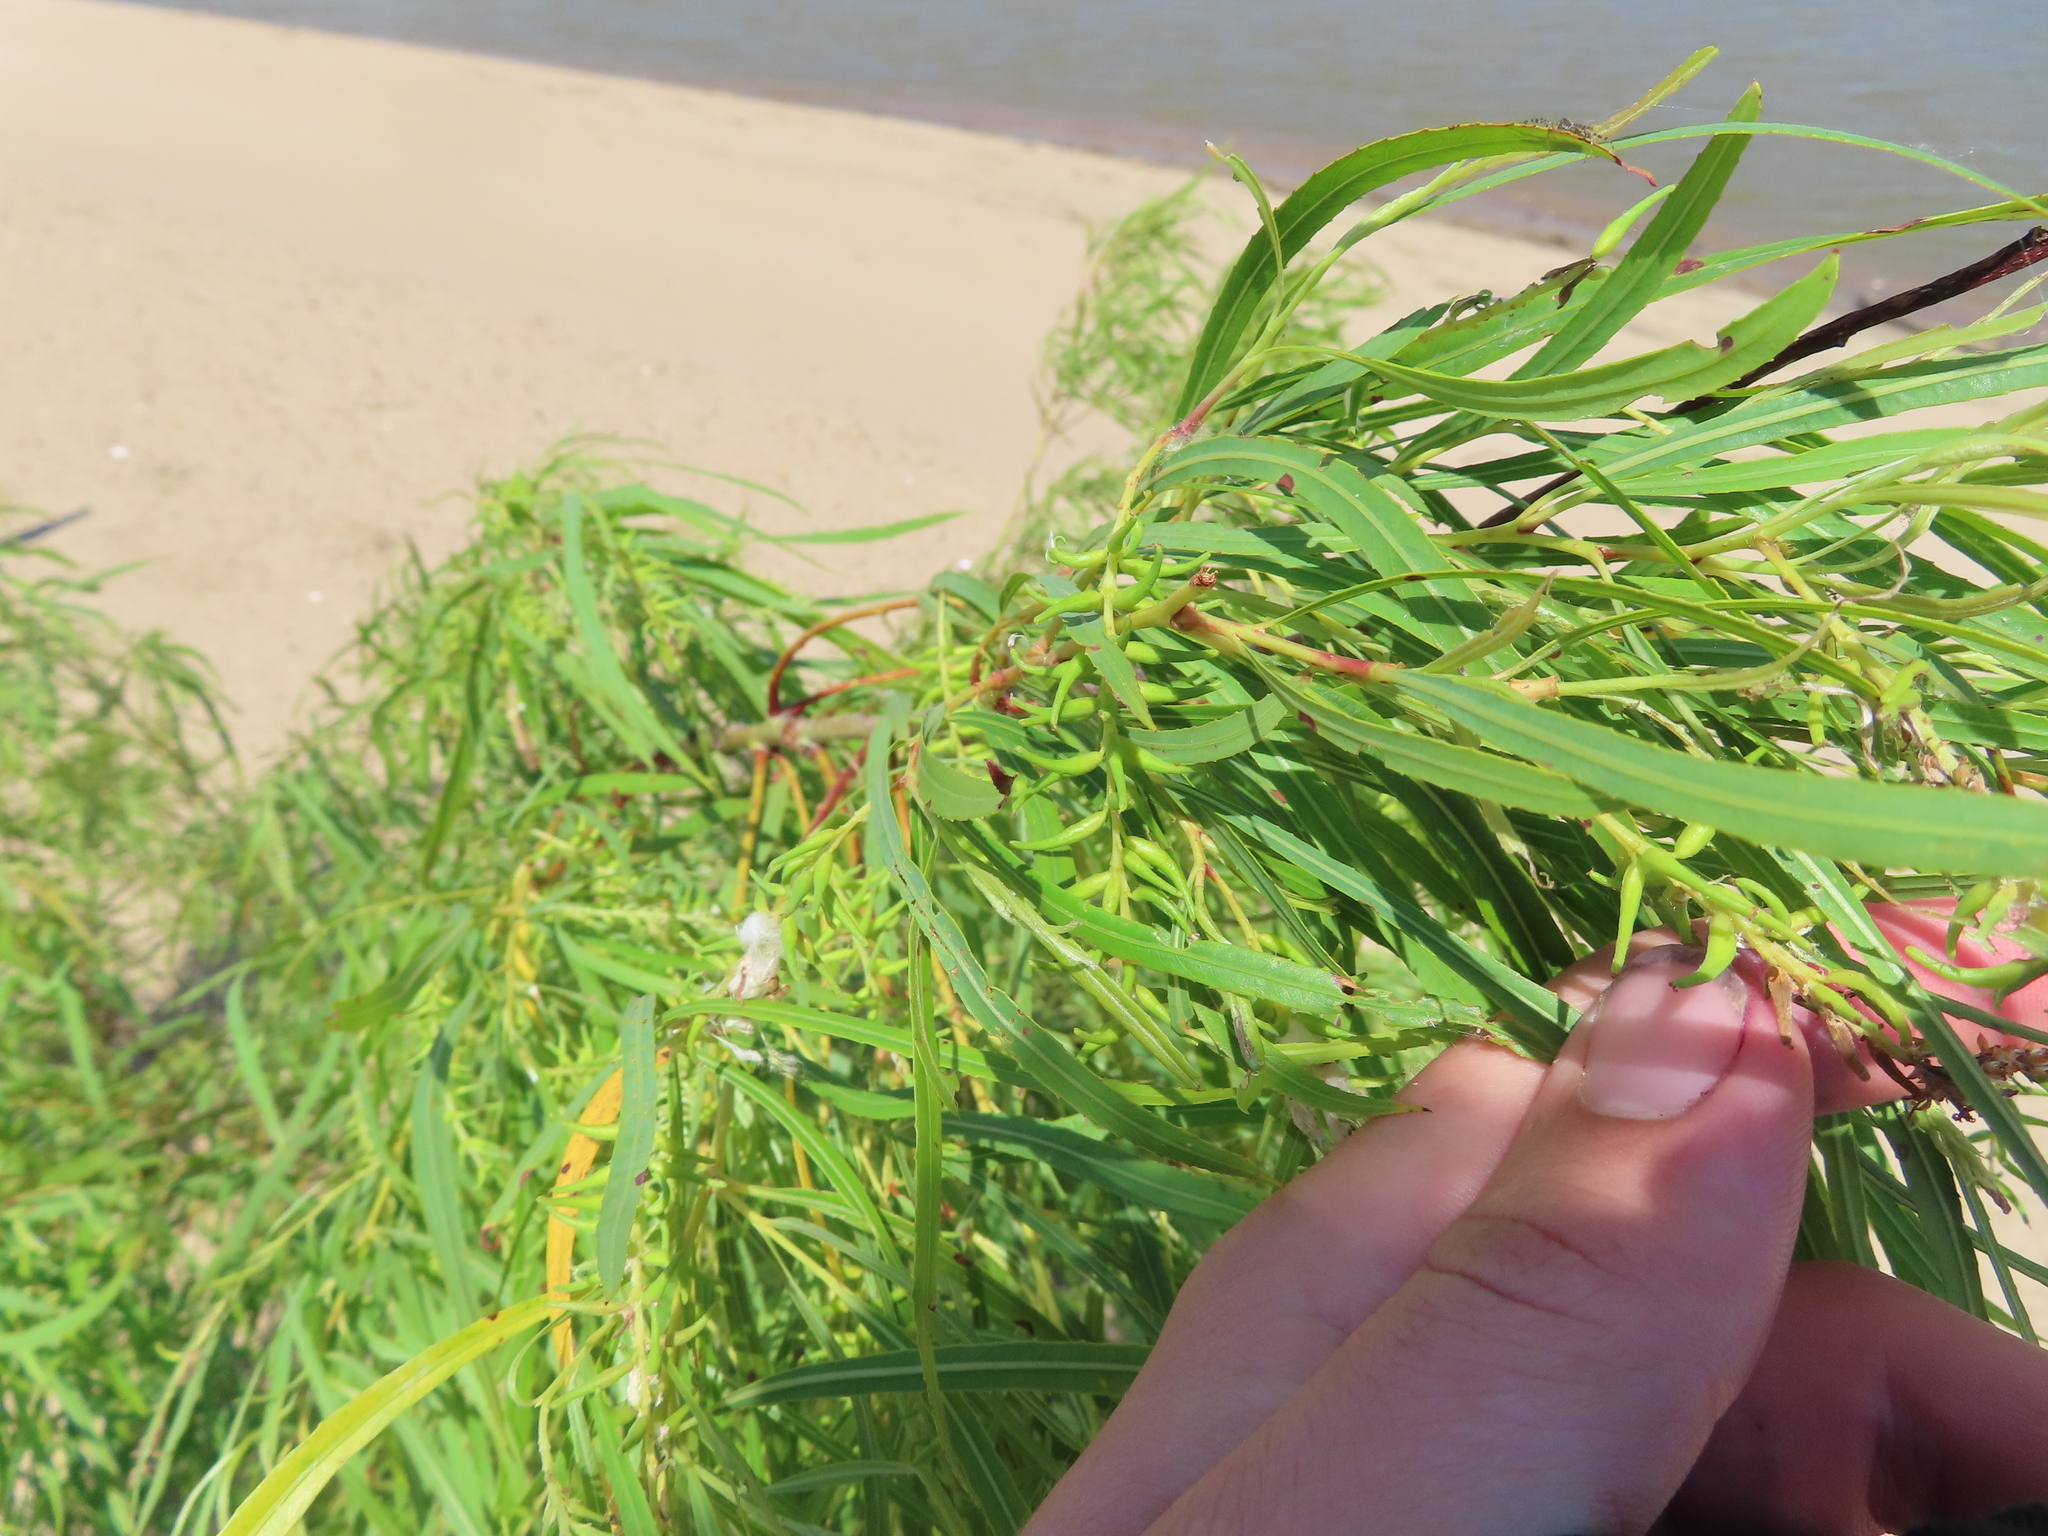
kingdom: Plantae
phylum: Tracheophyta
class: Magnoliopsida
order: Malpighiales
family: Salicaceae
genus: Salix
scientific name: Salix interior
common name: Sandbar willow
